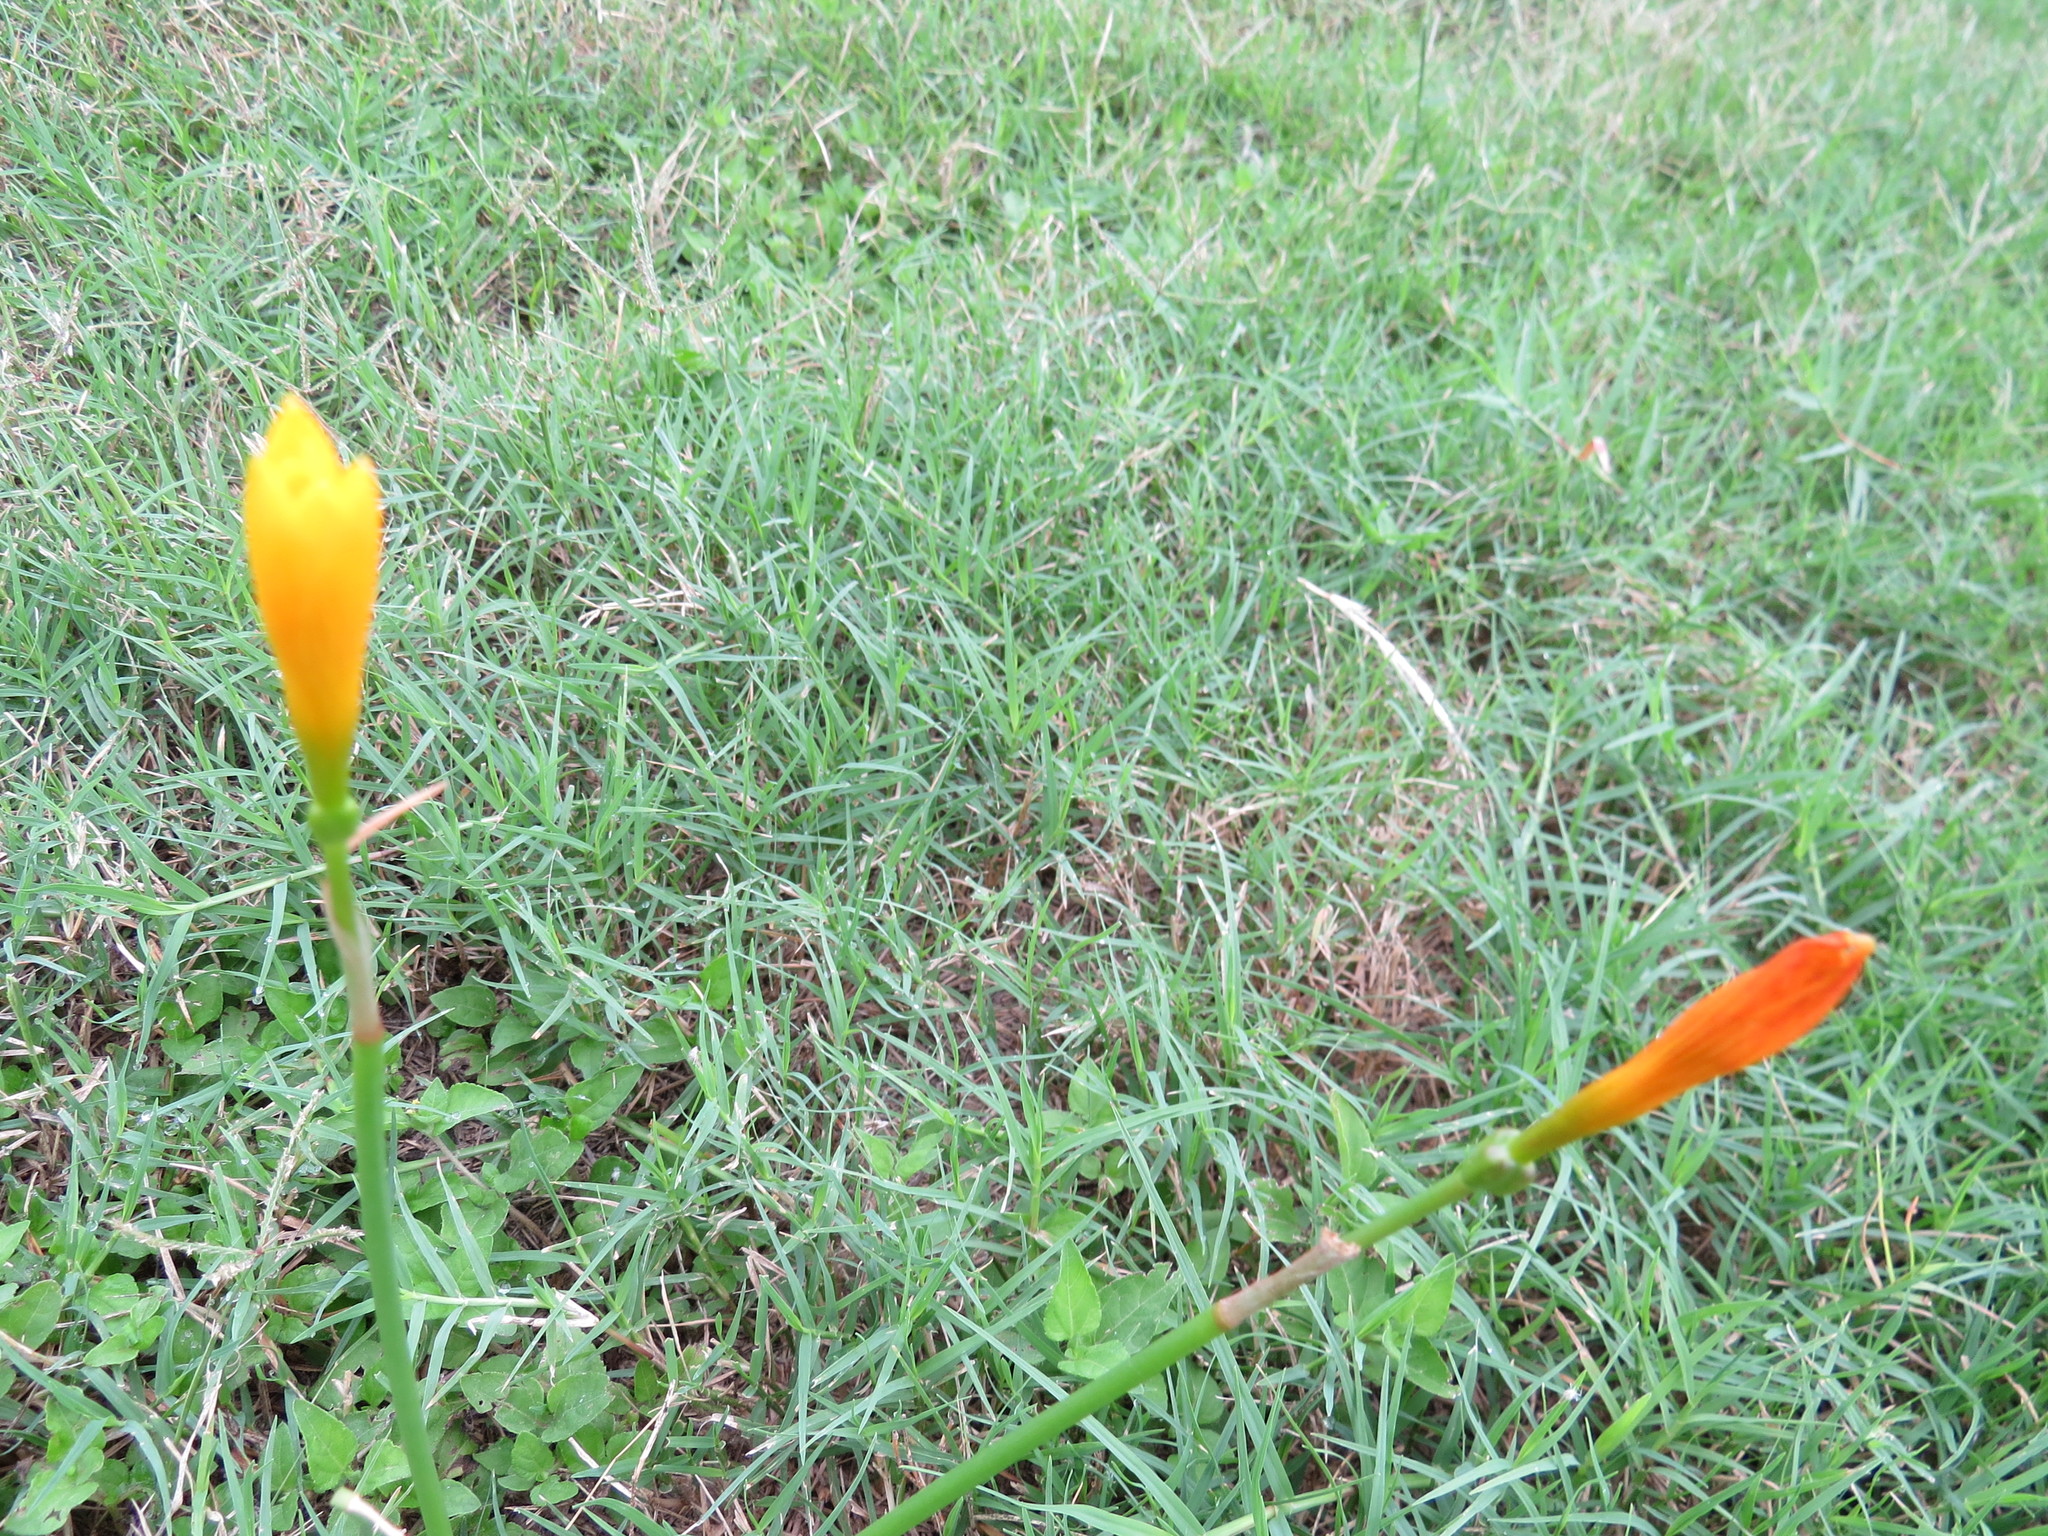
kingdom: Plantae
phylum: Tracheophyta
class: Liliopsida
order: Asparagales
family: Amaryllidaceae
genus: Zephyranthes
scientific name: Zephyranthes pulchella
